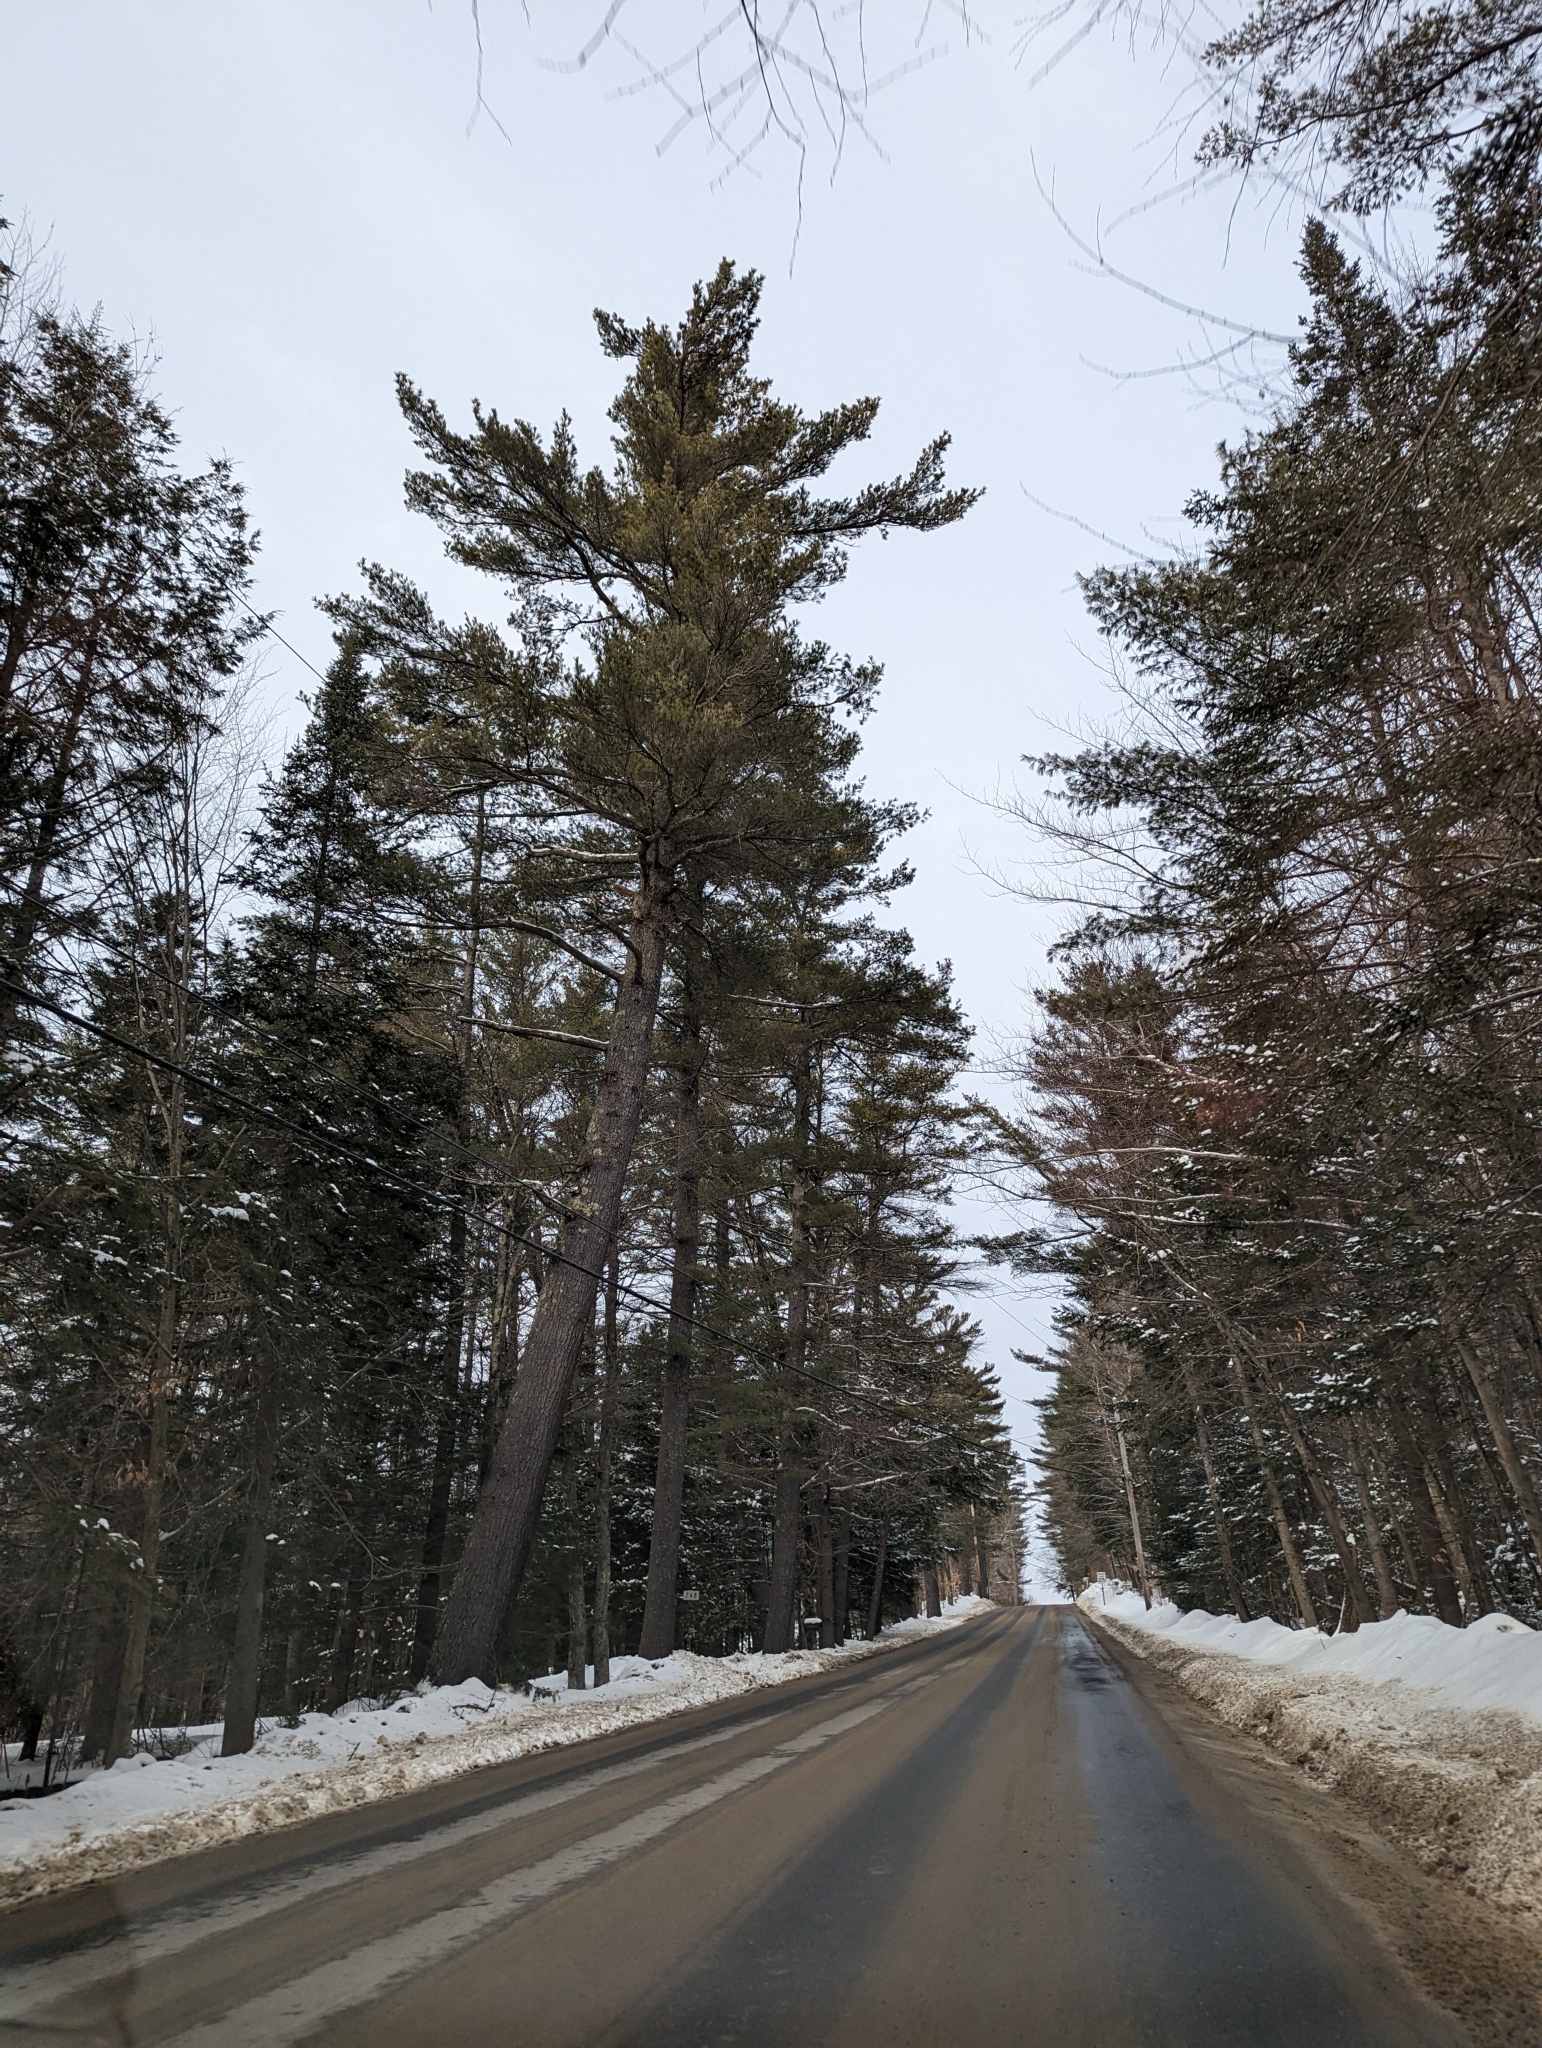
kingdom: Plantae
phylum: Tracheophyta
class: Pinopsida
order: Pinales
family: Pinaceae
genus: Pinus
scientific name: Pinus strobus
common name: Weymouth pine
